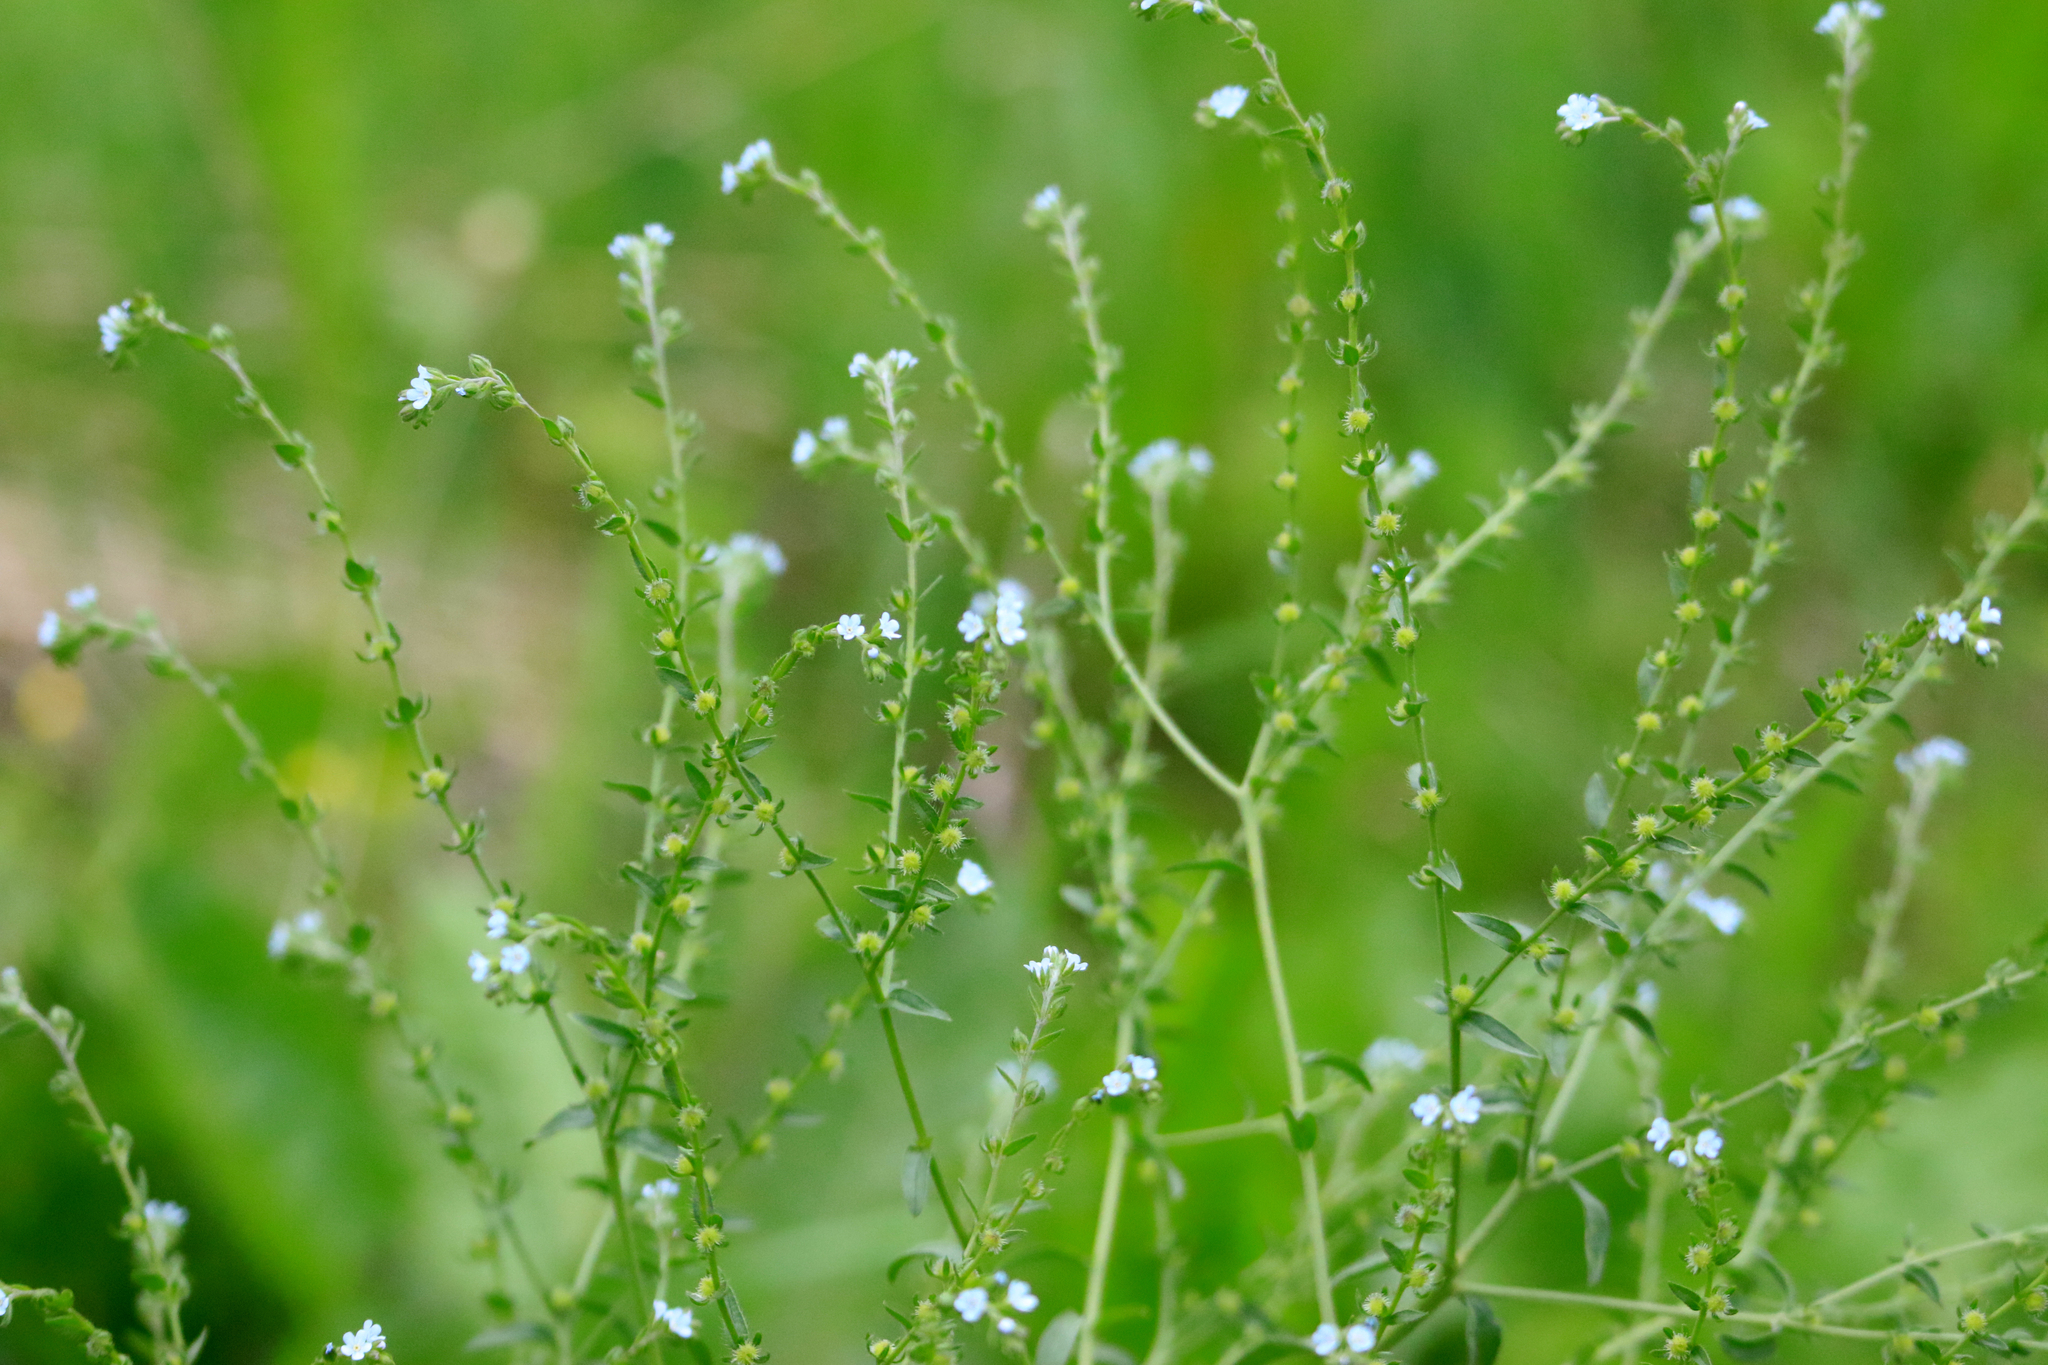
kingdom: Plantae
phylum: Tracheophyta
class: Magnoliopsida
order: Boraginales
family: Boraginaceae
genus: Lappula
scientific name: Lappula squarrosa
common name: European stickseed
